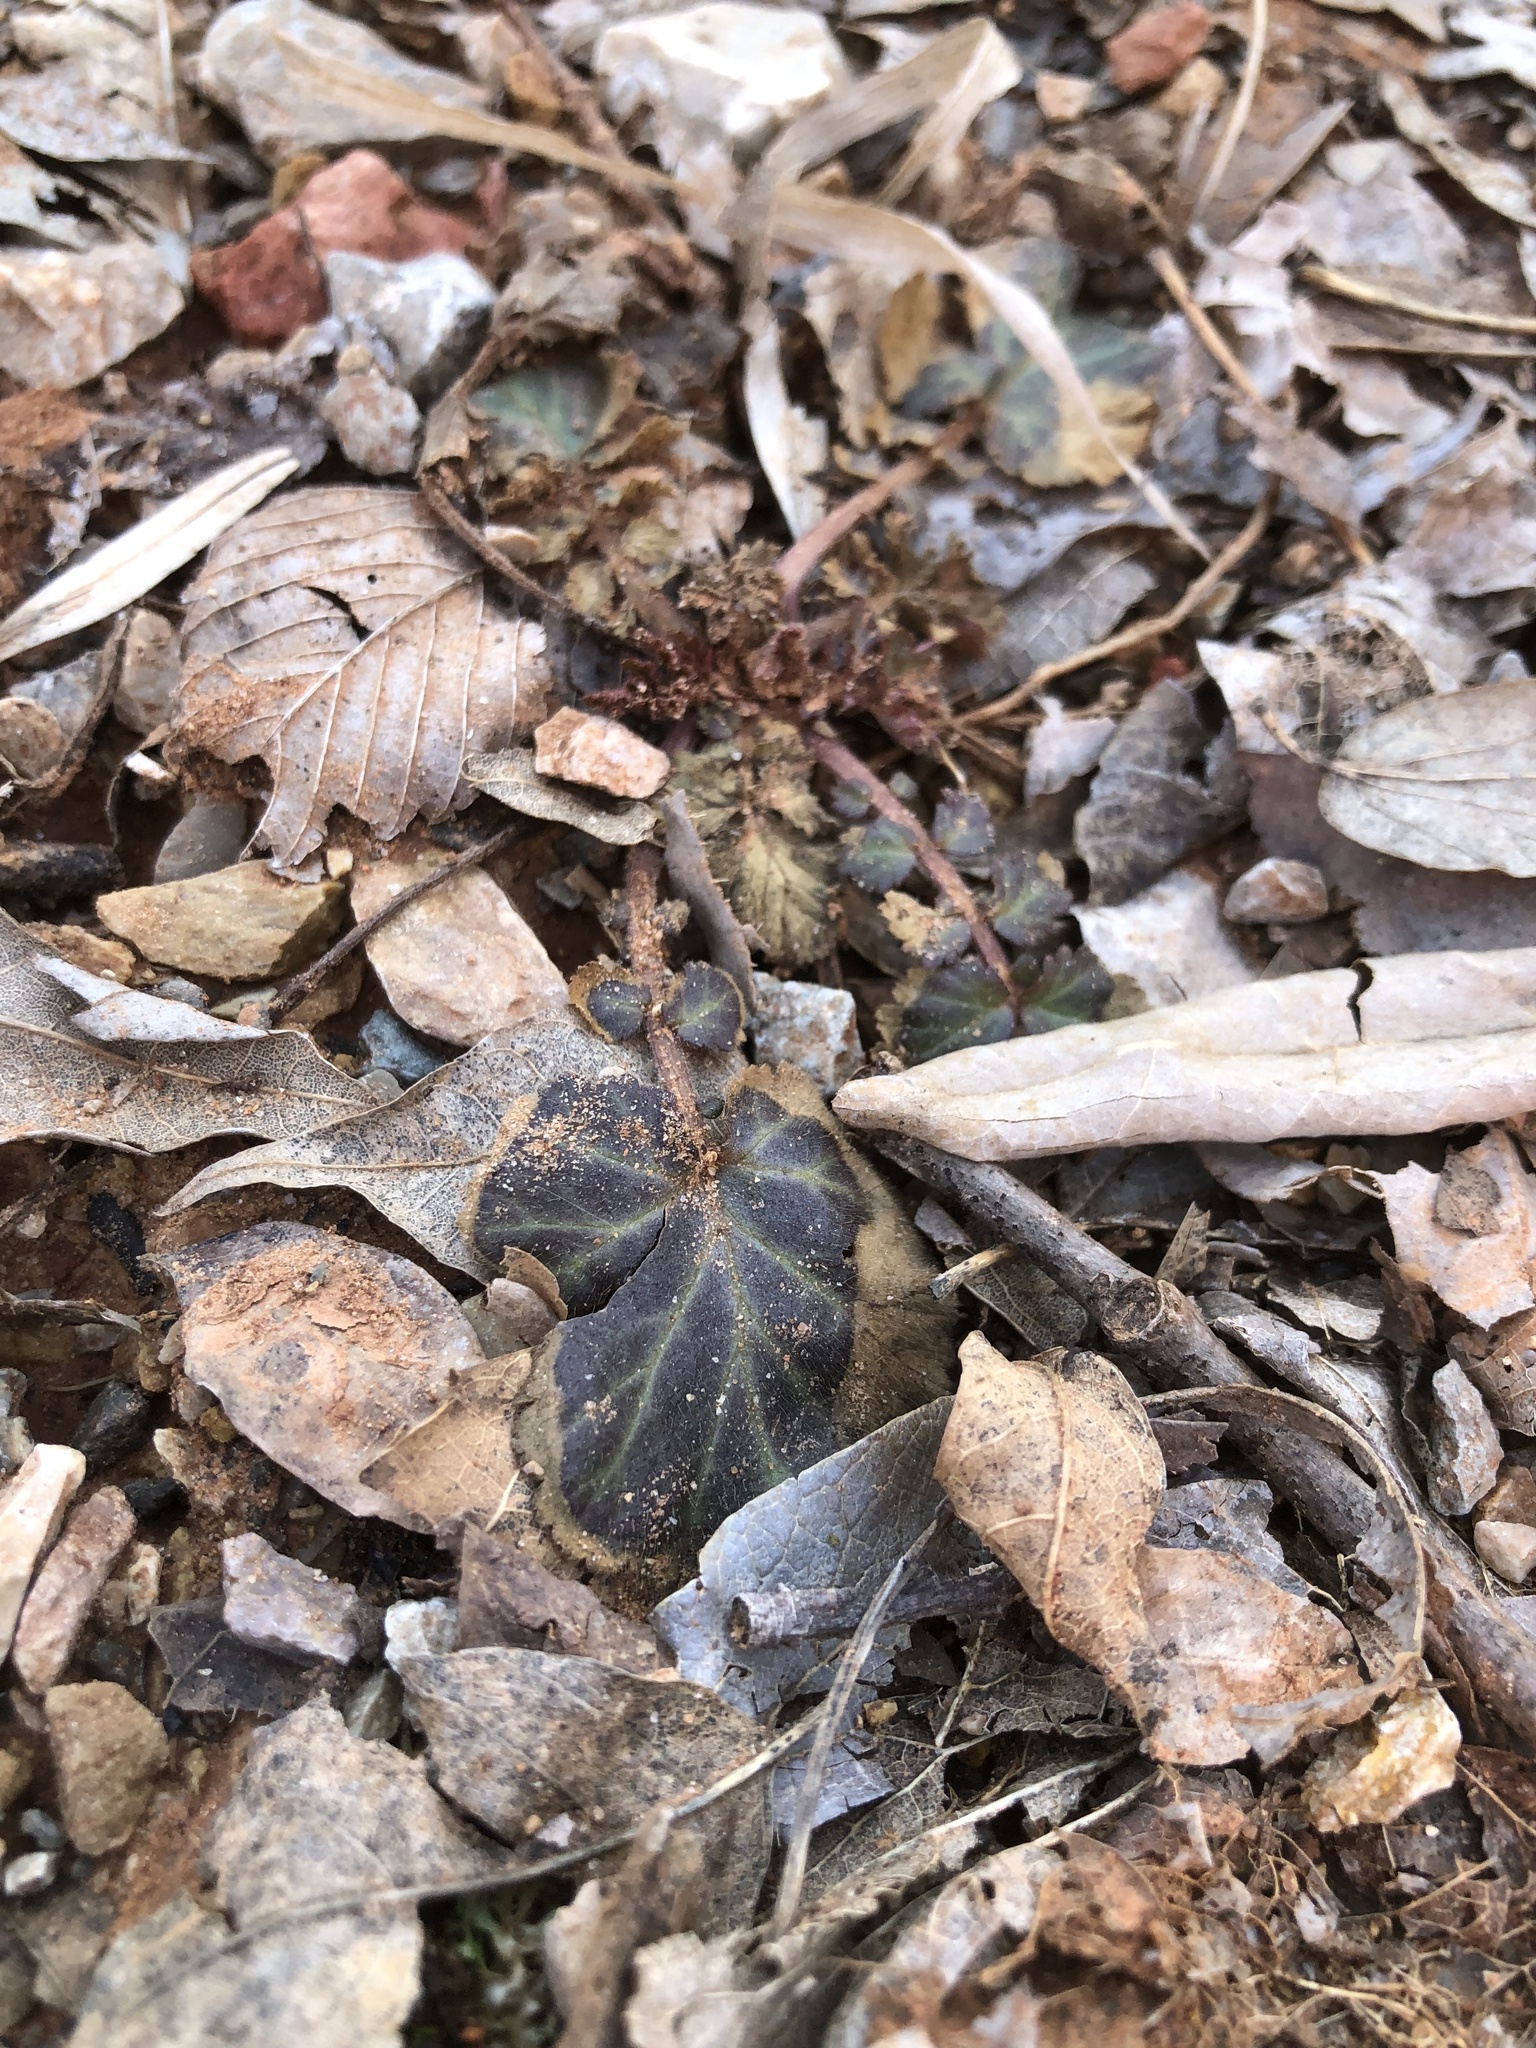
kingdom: Plantae
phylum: Tracheophyta
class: Magnoliopsida
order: Rosales
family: Rosaceae
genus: Geum
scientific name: Geum canadense
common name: White avens
